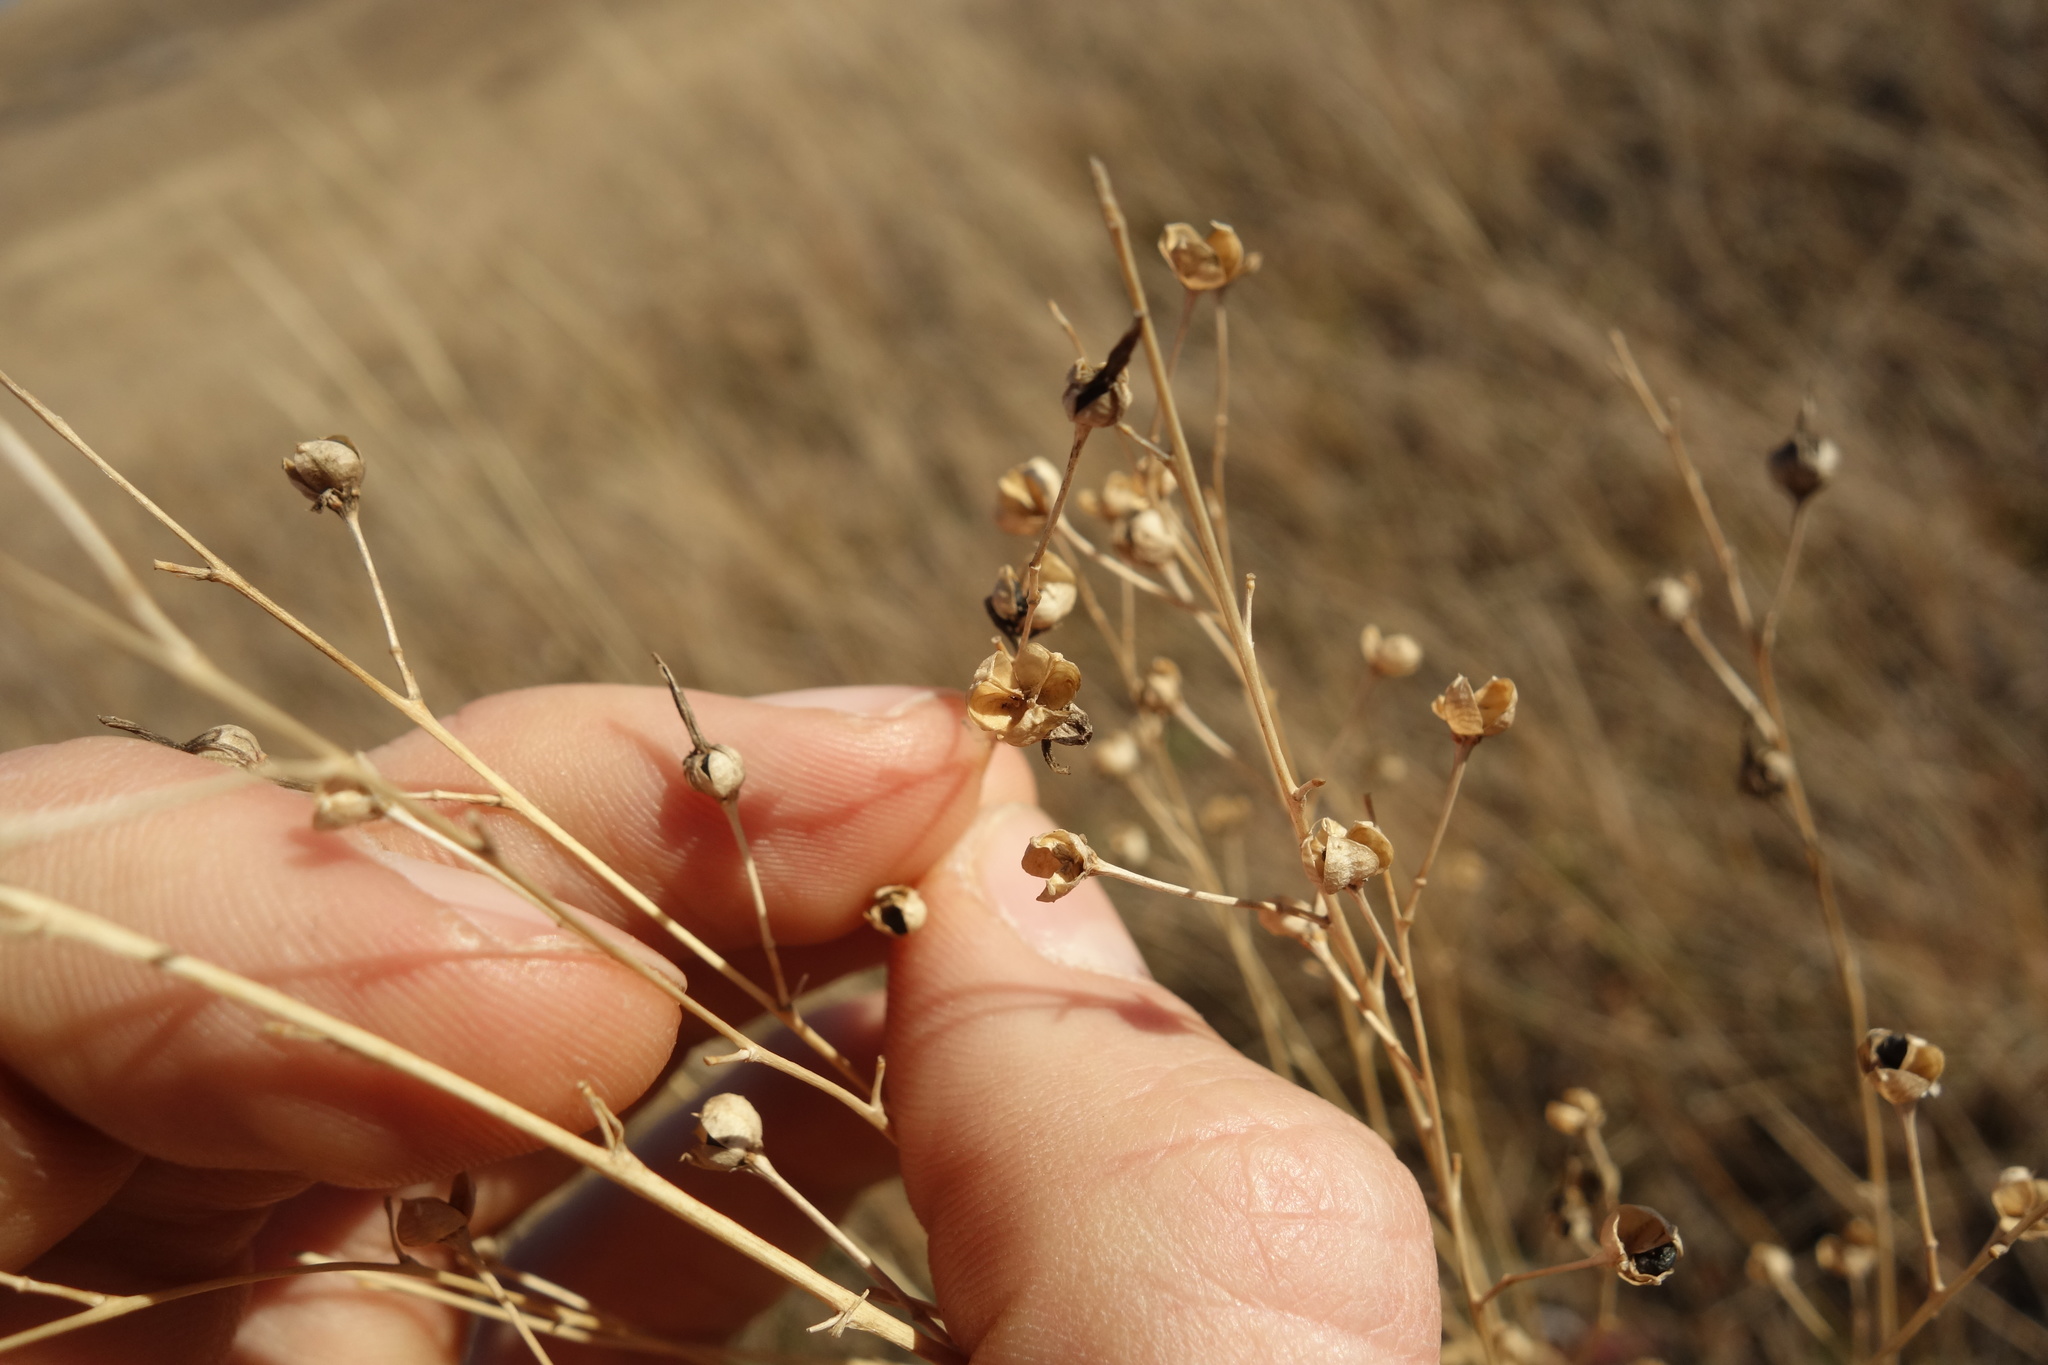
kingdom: Plantae
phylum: Tracheophyta
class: Liliopsida
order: Asparagales
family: Asparagaceae
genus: Anthericum
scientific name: Anthericum ramosum
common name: Branched st. bernard's-lily
